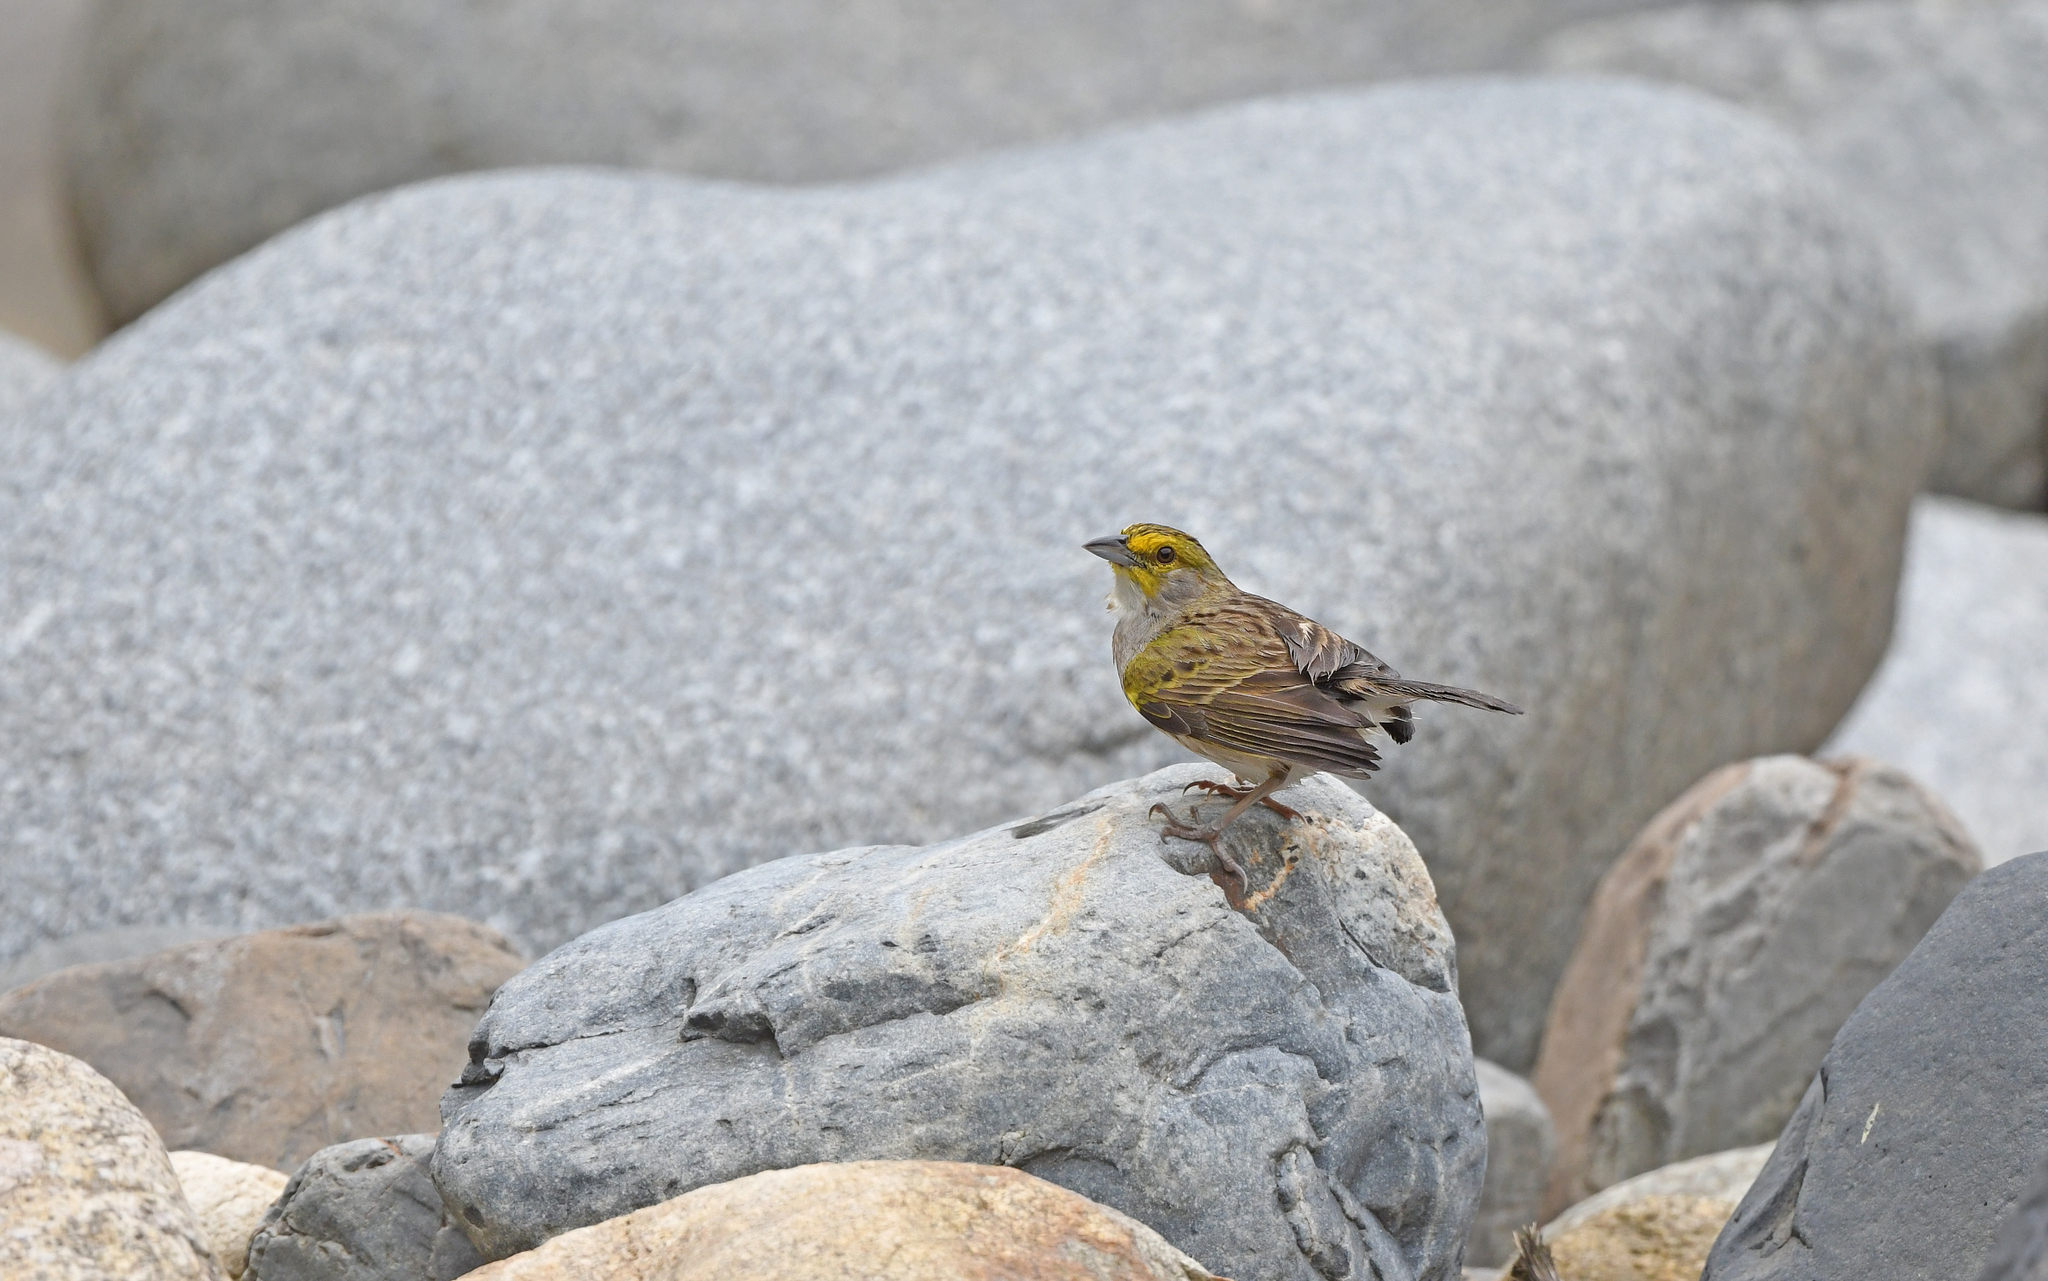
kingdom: Animalia
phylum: Chordata
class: Aves
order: Passeriformes
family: Passerellidae
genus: Ammodramus
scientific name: Ammodramus aurifrons
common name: Yellow-browed sparrow
